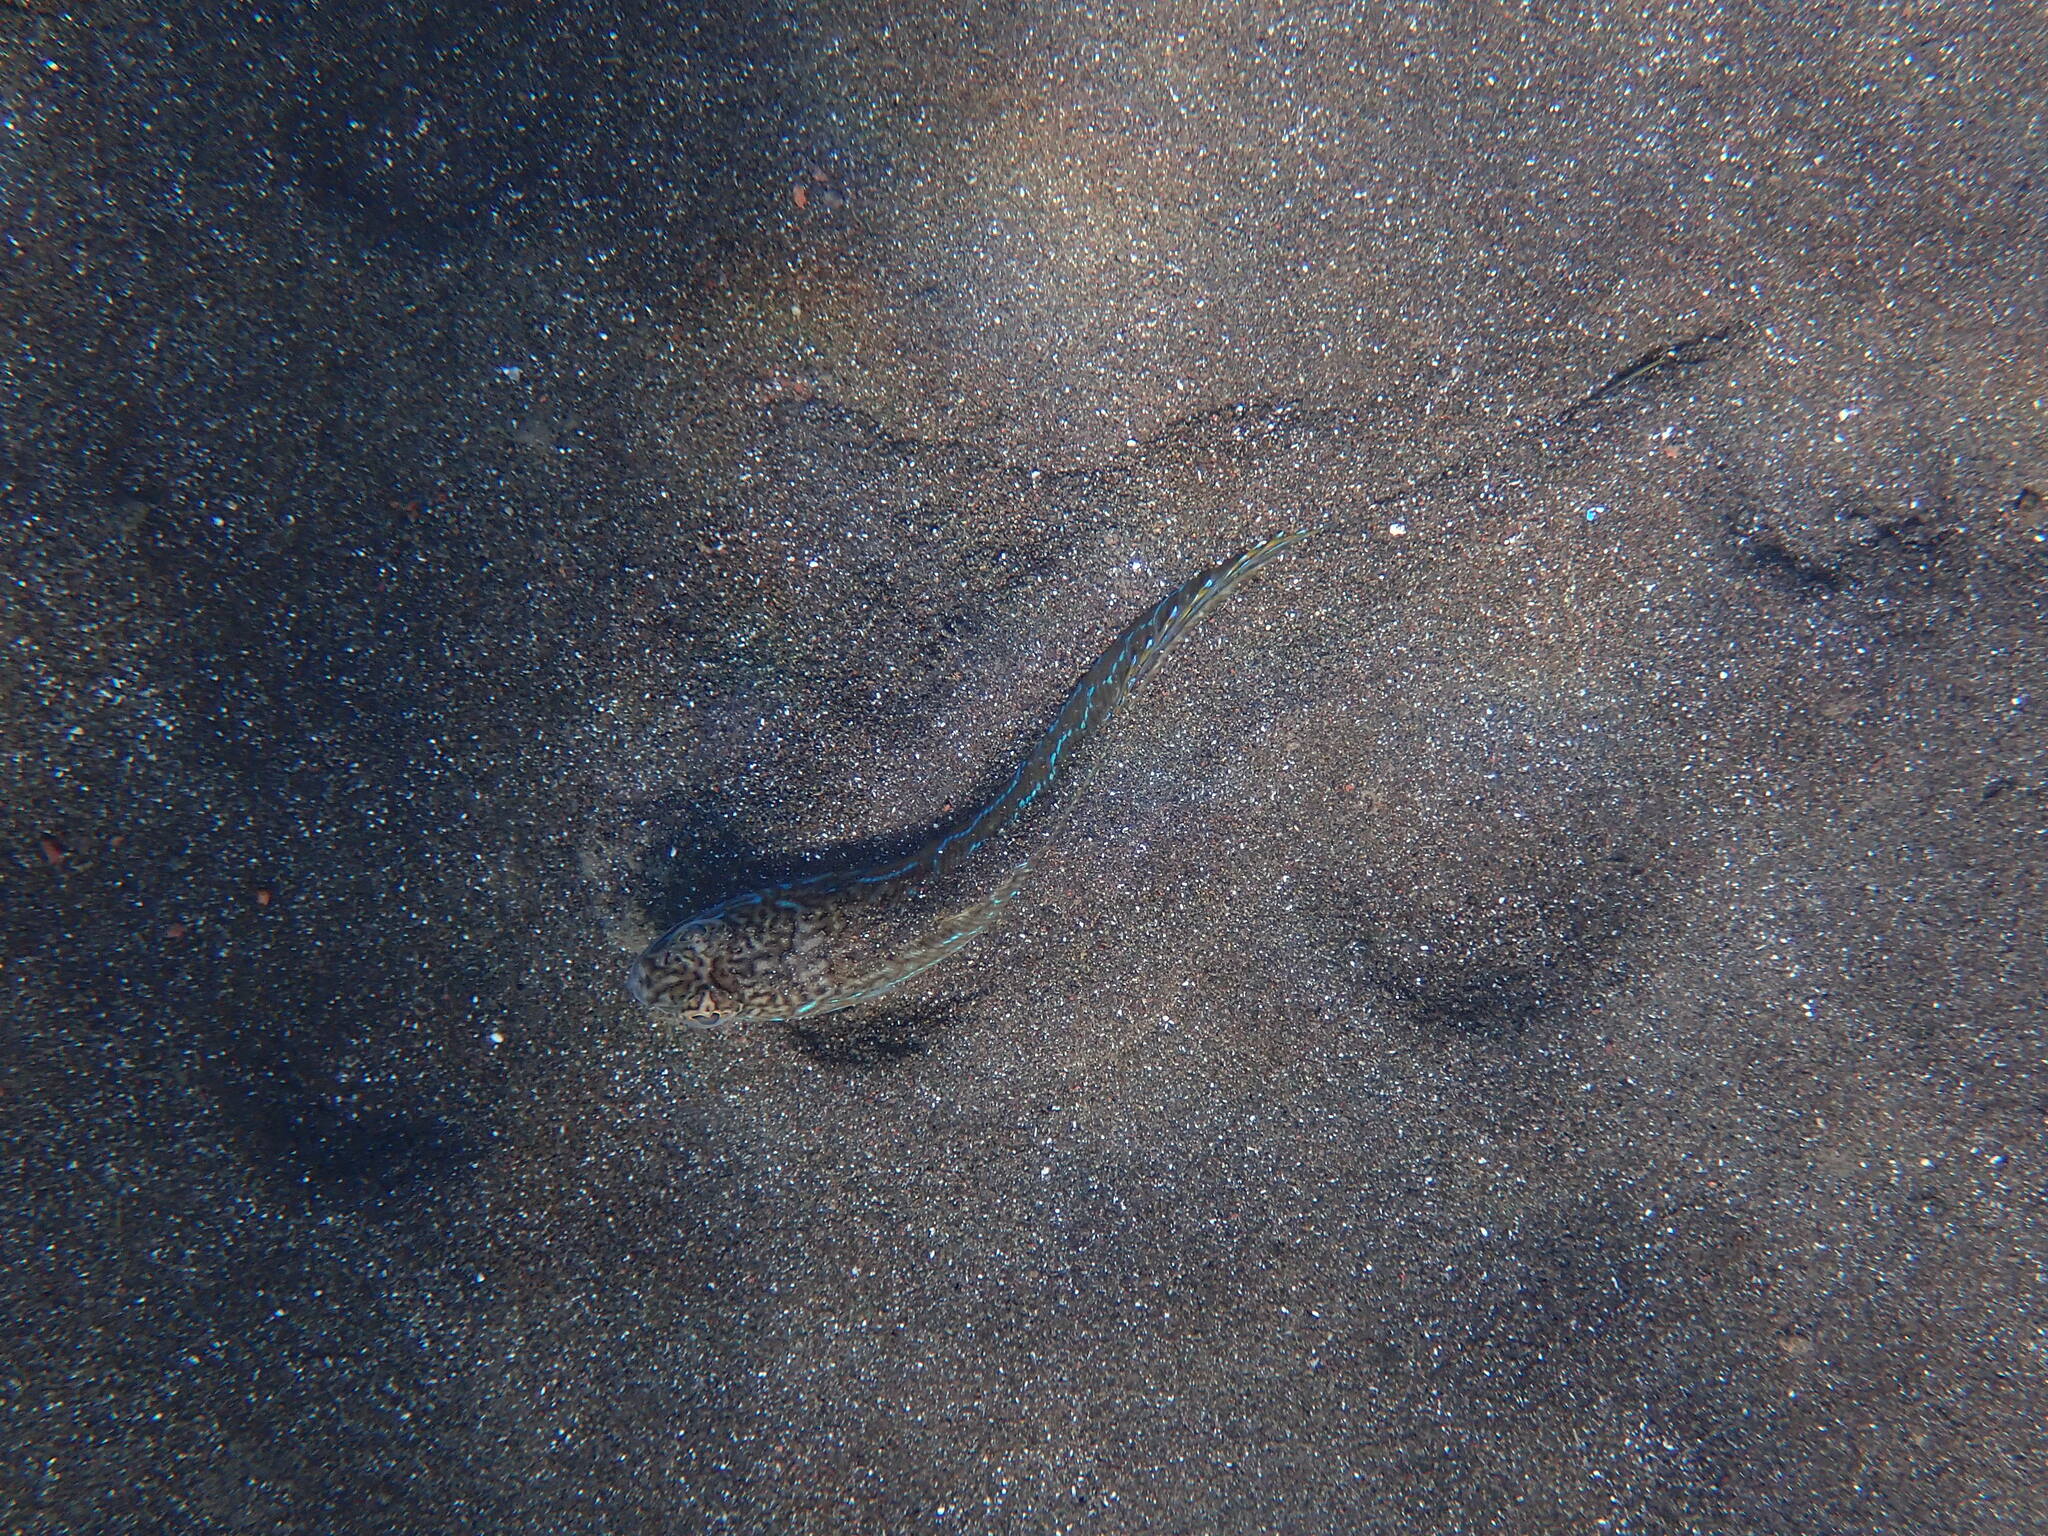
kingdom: Animalia
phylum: Chordata
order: Perciformes
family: Trachinidae
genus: Trachinus
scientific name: Trachinus draco
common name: Greater weever
